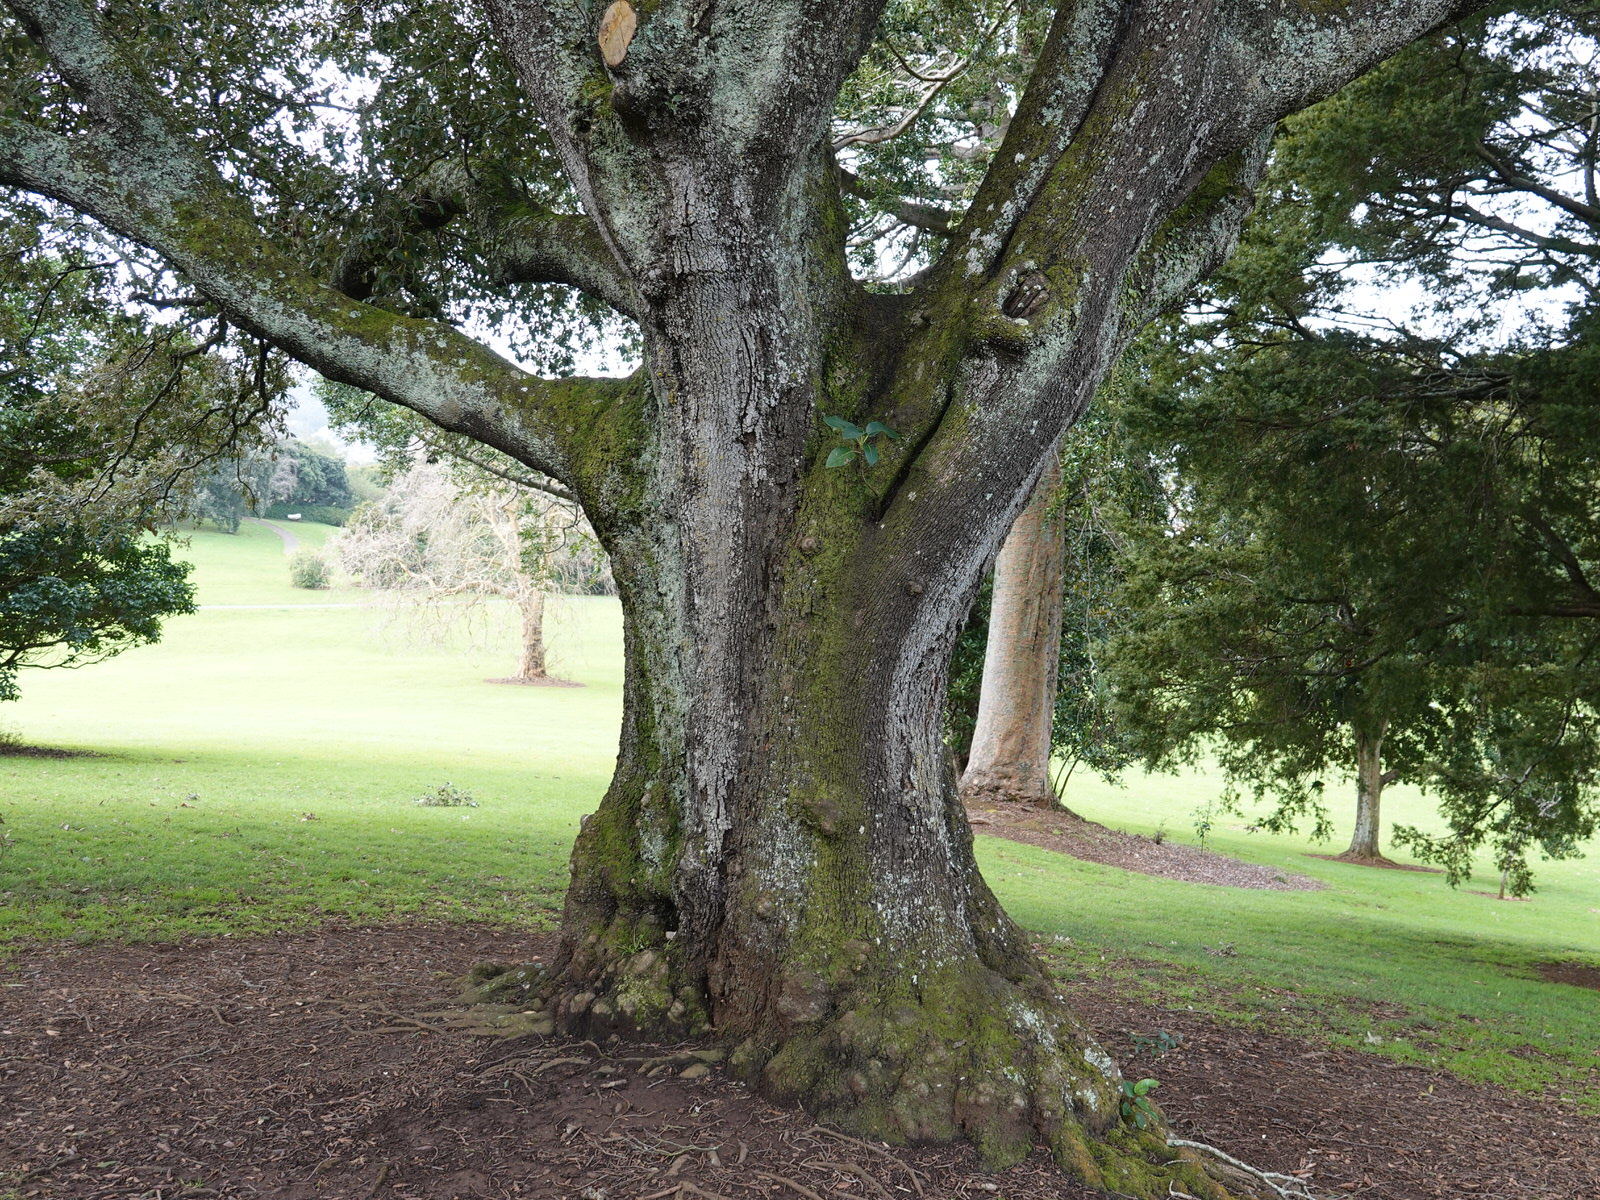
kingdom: Plantae
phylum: Tracheophyta
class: Magnoliopsida
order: Rosales
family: Moraceae
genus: Ficus
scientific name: Ficus macrophylla
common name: Moreton bay fig
